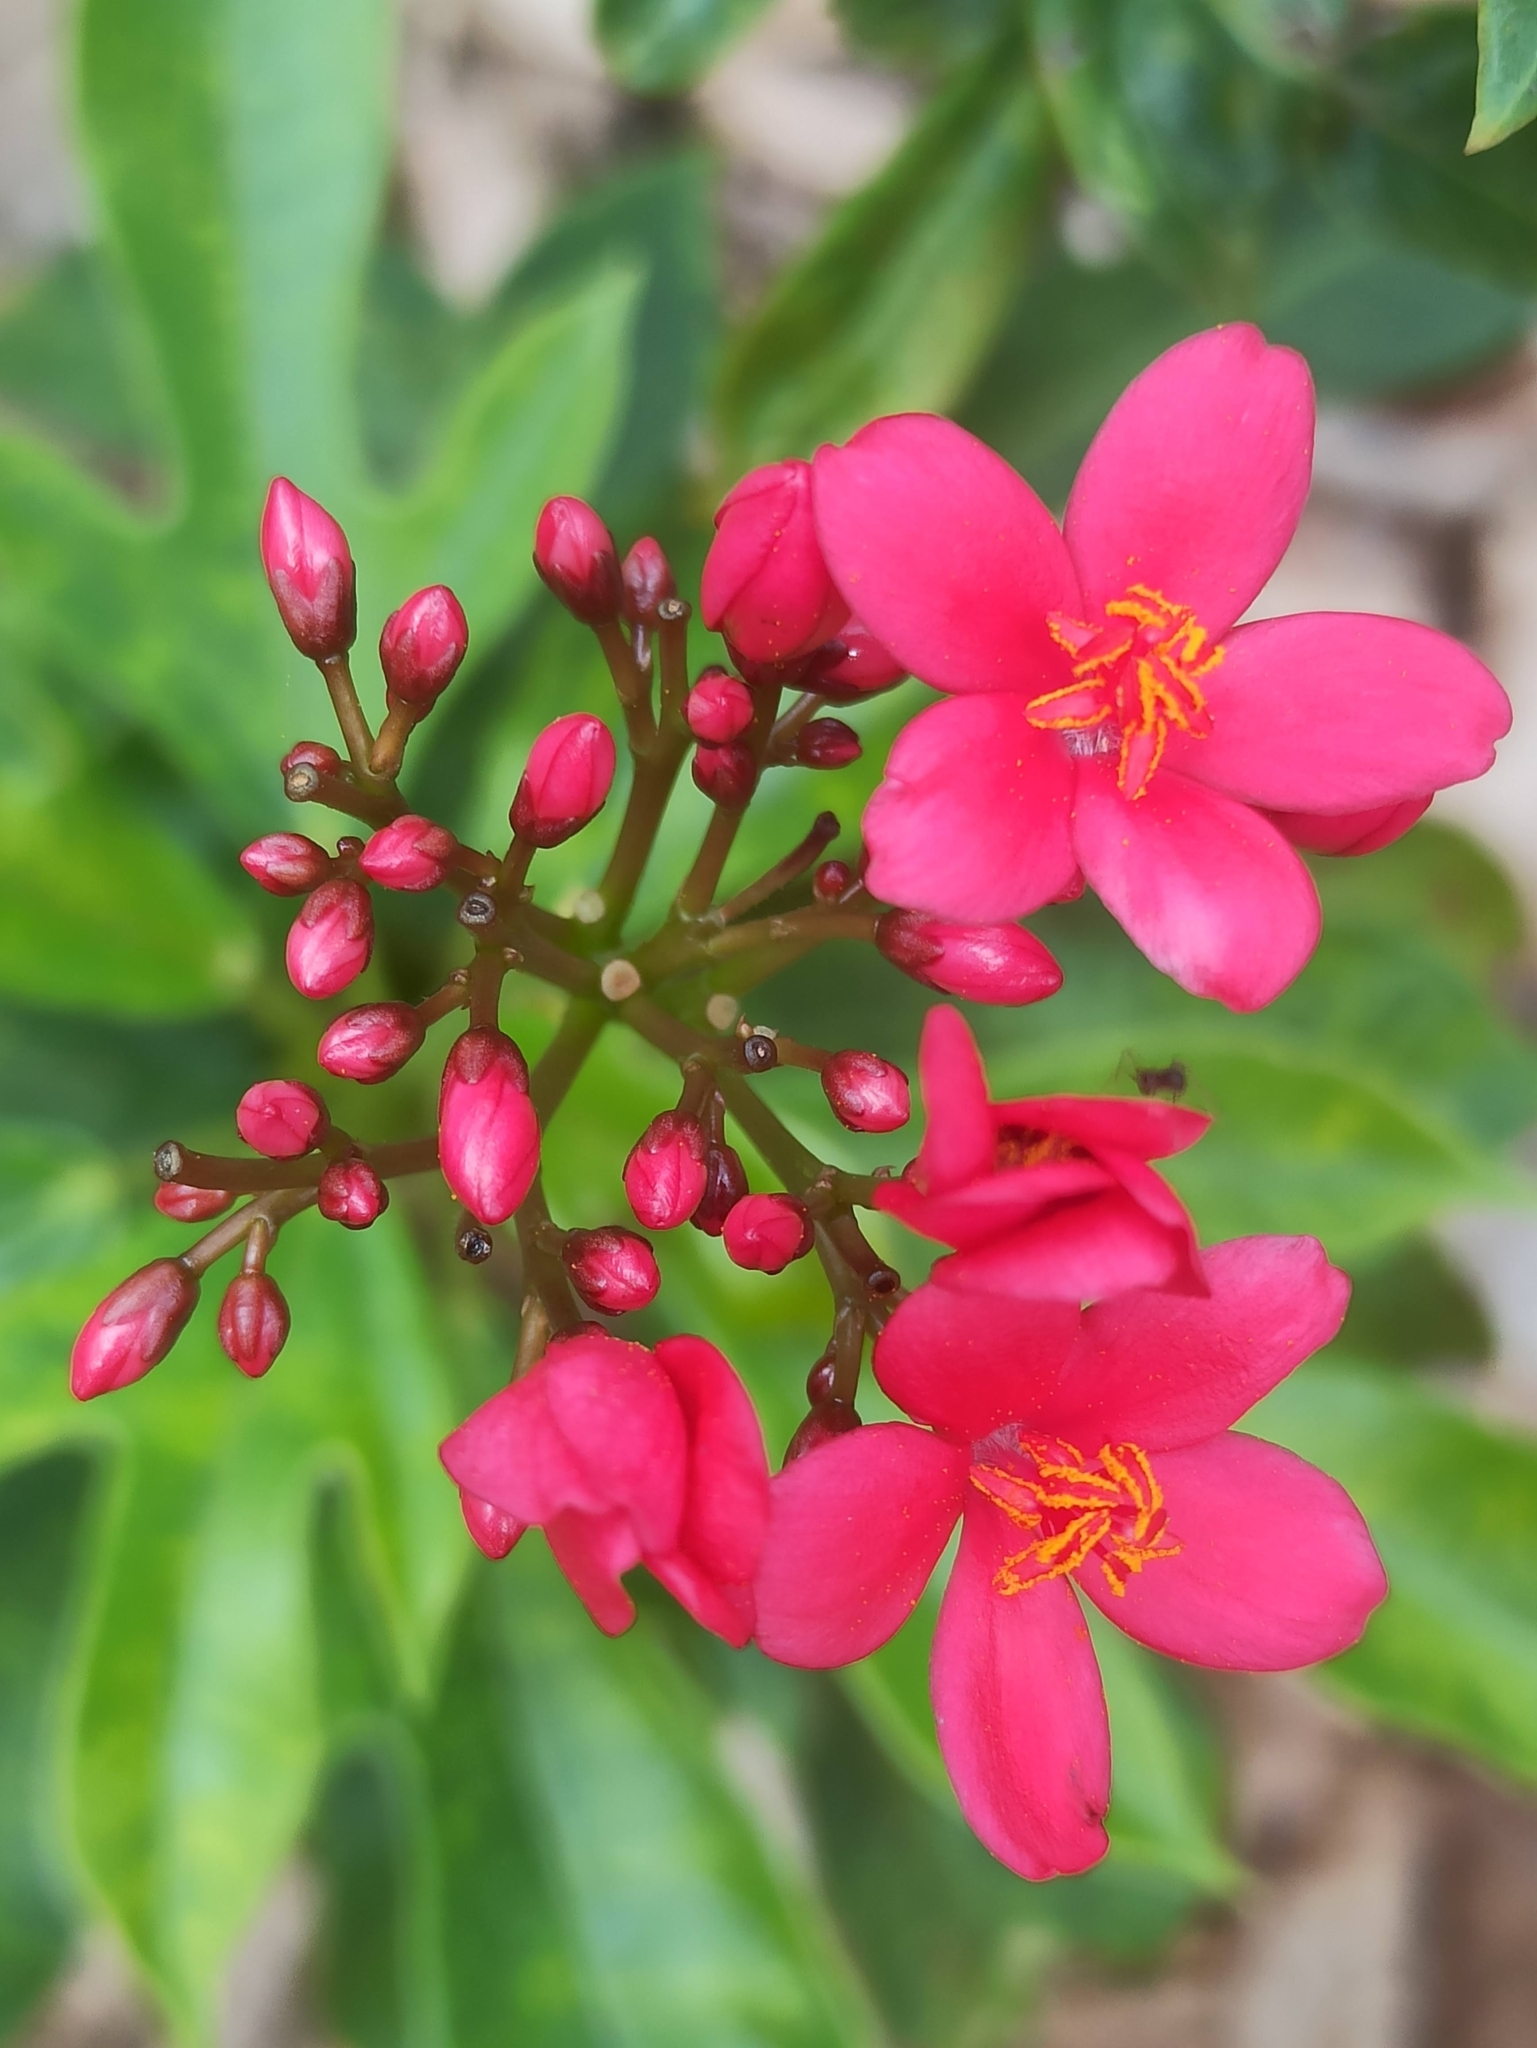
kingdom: Plantae
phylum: Tracheophyta
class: Magnoliopsida
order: Malpighiales
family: Euphorbiaceae
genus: Jatropha
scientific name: Jatropha integerrima
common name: Peregrina
